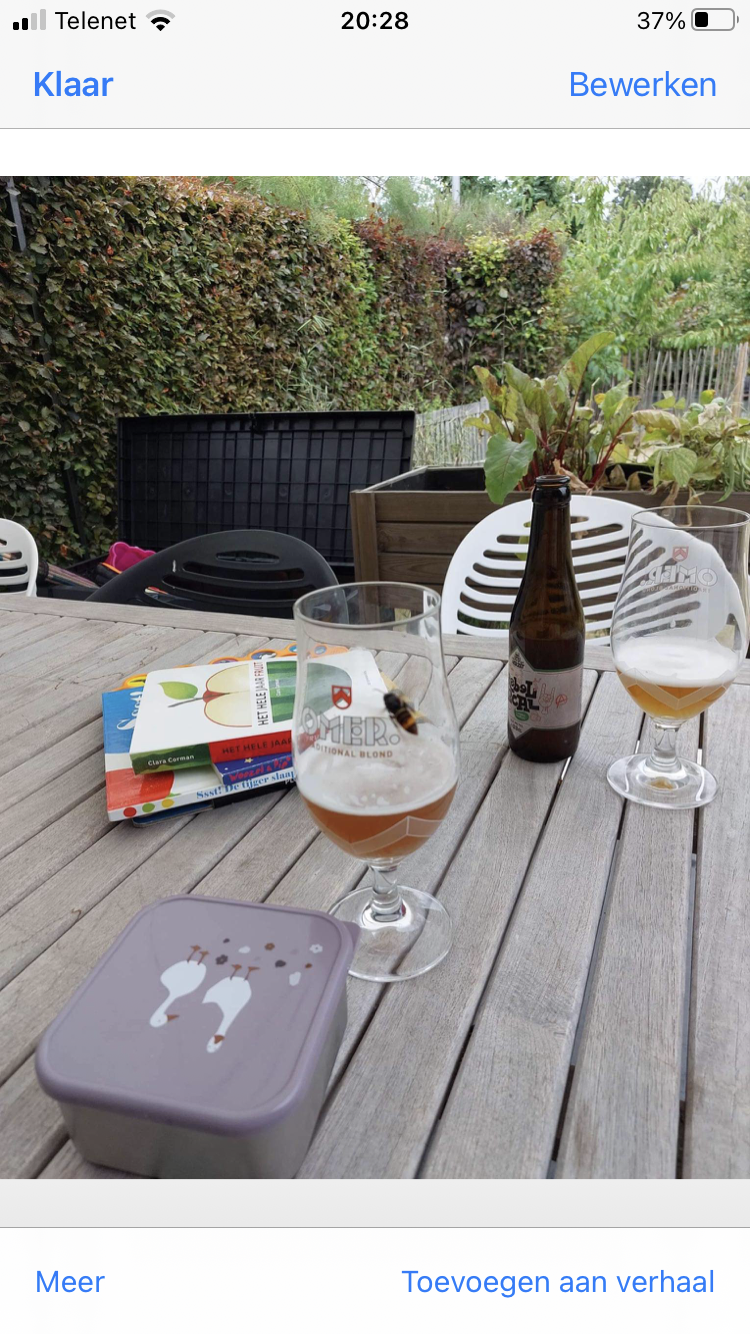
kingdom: Animalia
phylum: Arthropoda
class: Insecta
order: Hymenoptera
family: Vespidae
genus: Vespa
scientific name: Vespa velutina
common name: Asian hornet
